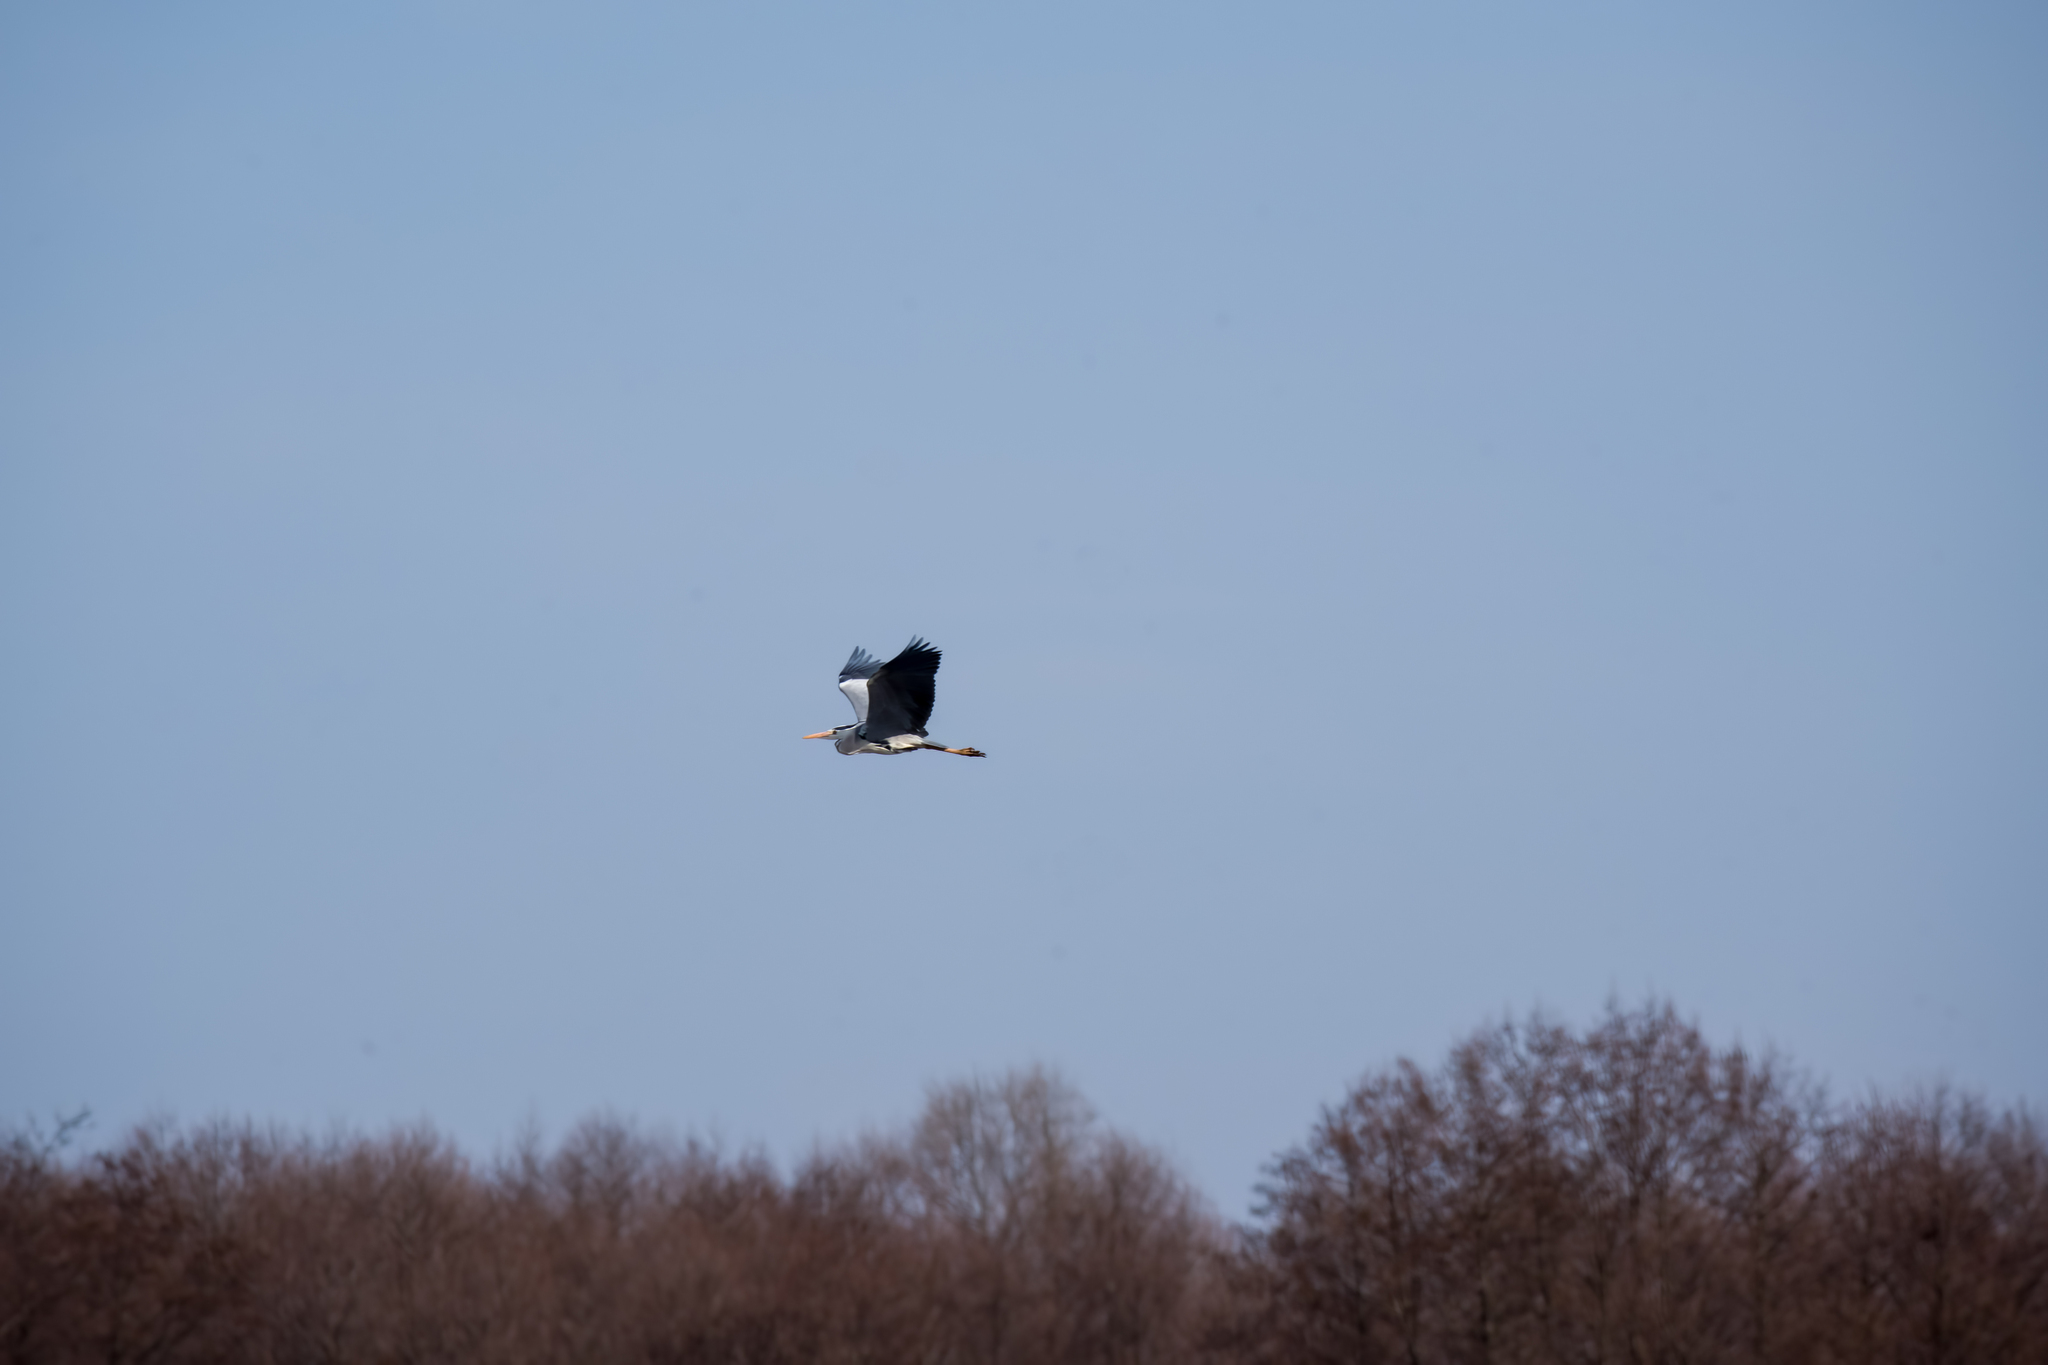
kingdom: Animalia
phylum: Chordata
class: Aves
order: Pelecaniformes
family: Ardeidae
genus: Ardea
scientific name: Ardea cinerea
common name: Grey heron
